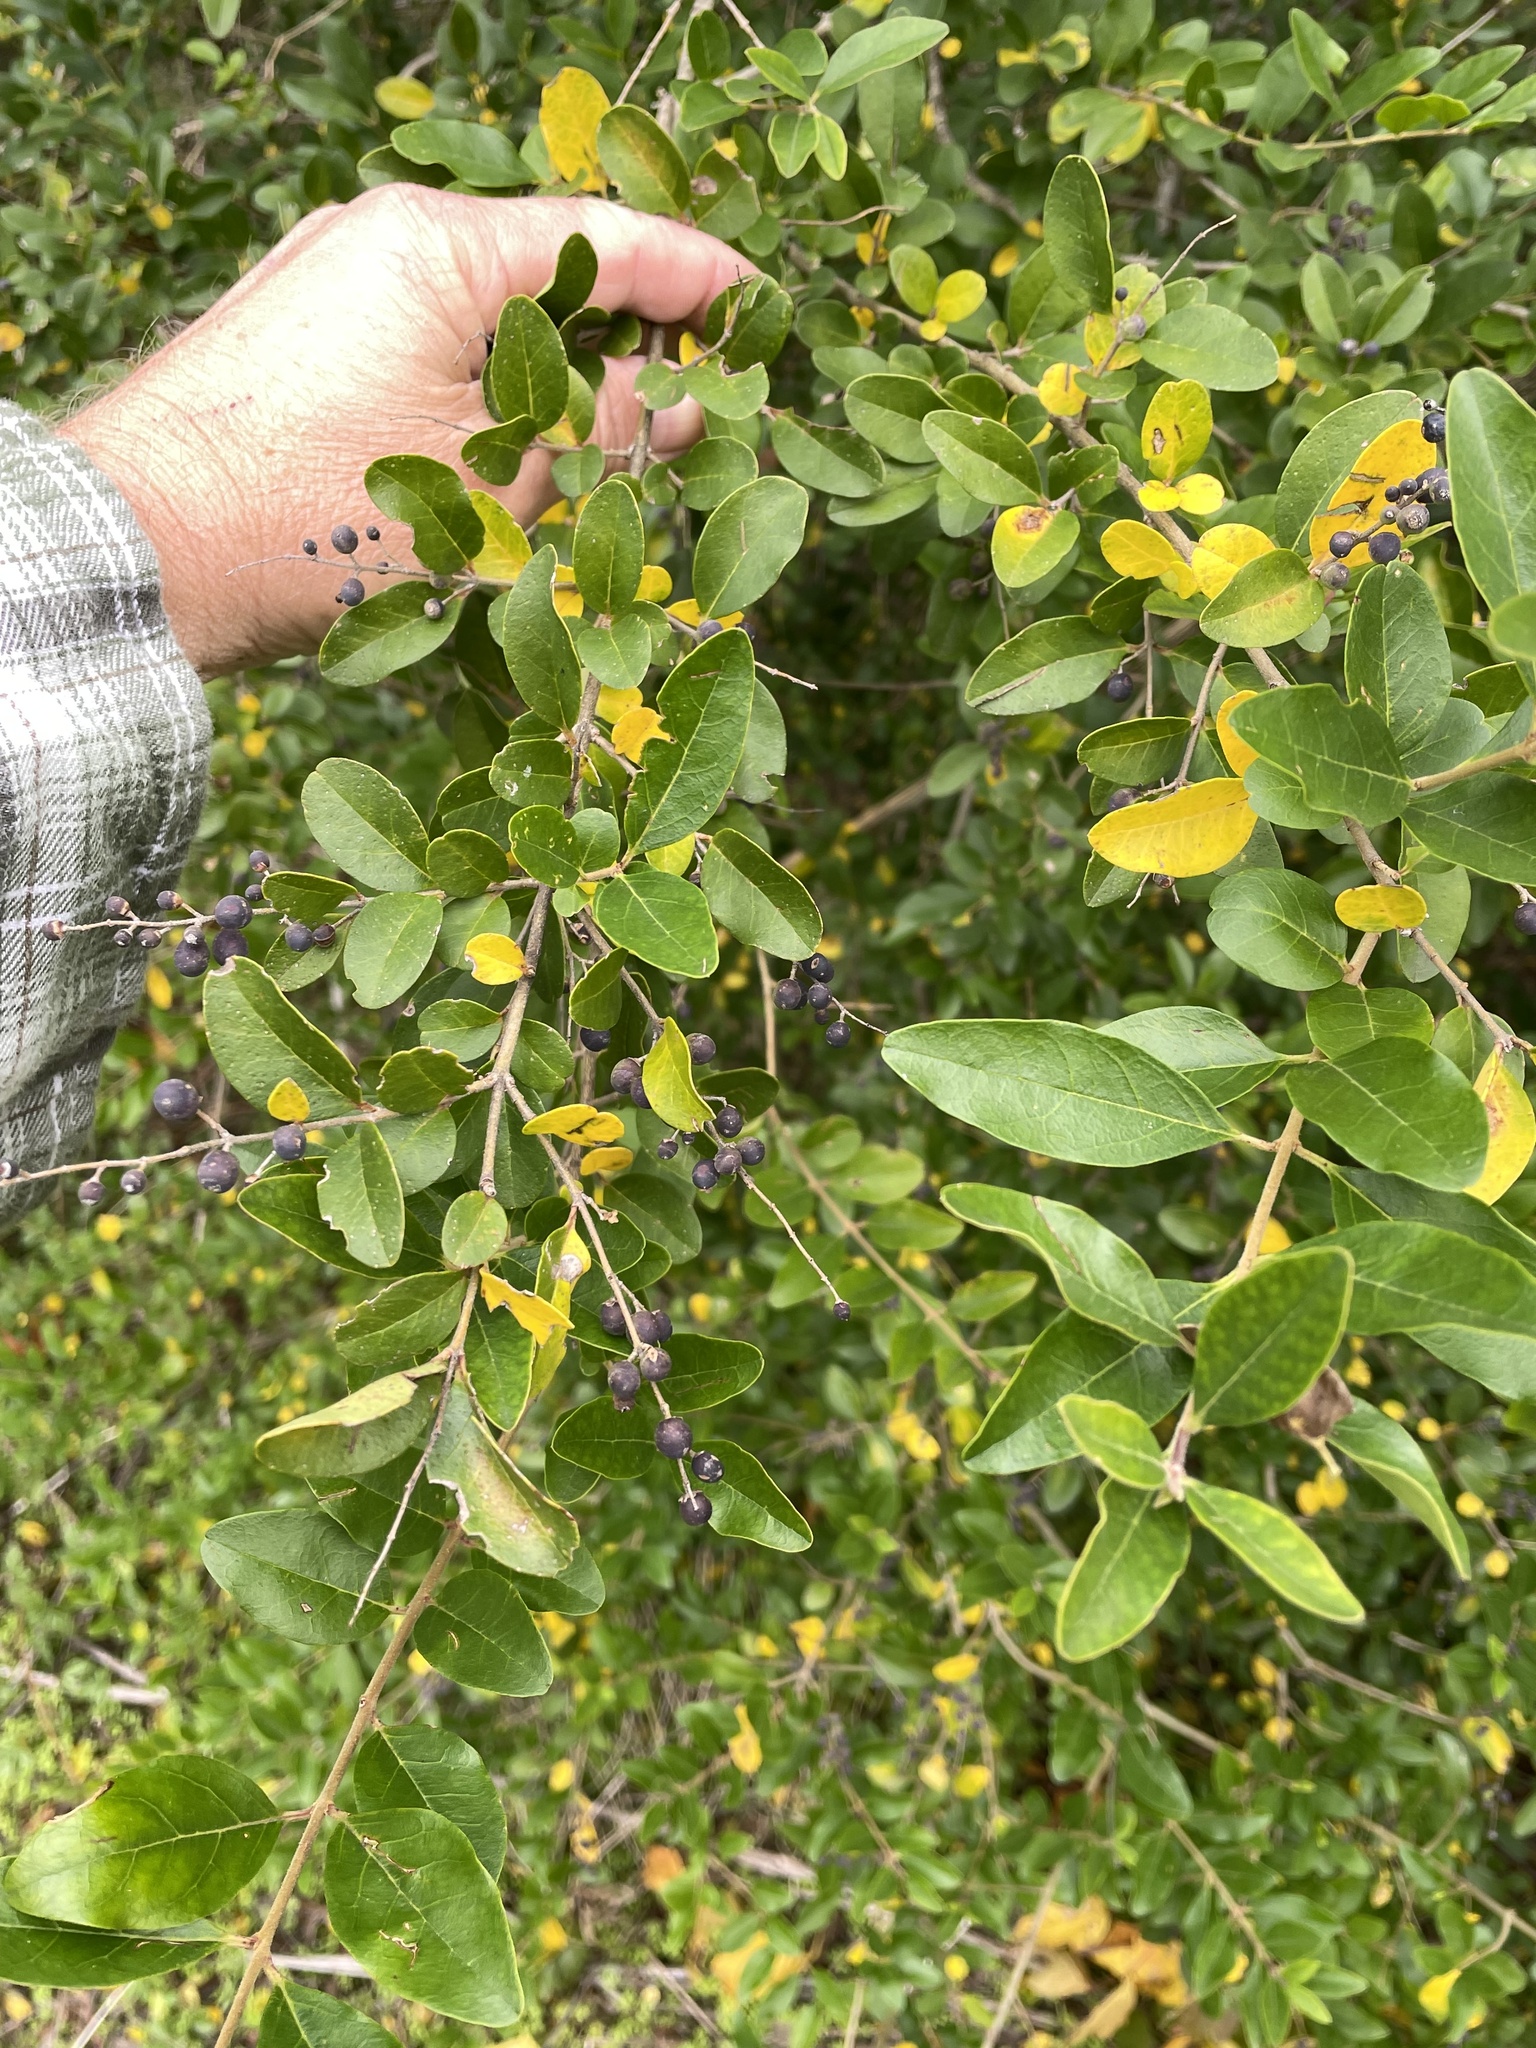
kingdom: Plantae
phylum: Tracheophyta
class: Magnoliopsida
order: Lamiales
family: Oleaceae
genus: Ligustrum
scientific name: Ligustrum sinense
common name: Chinese privet
